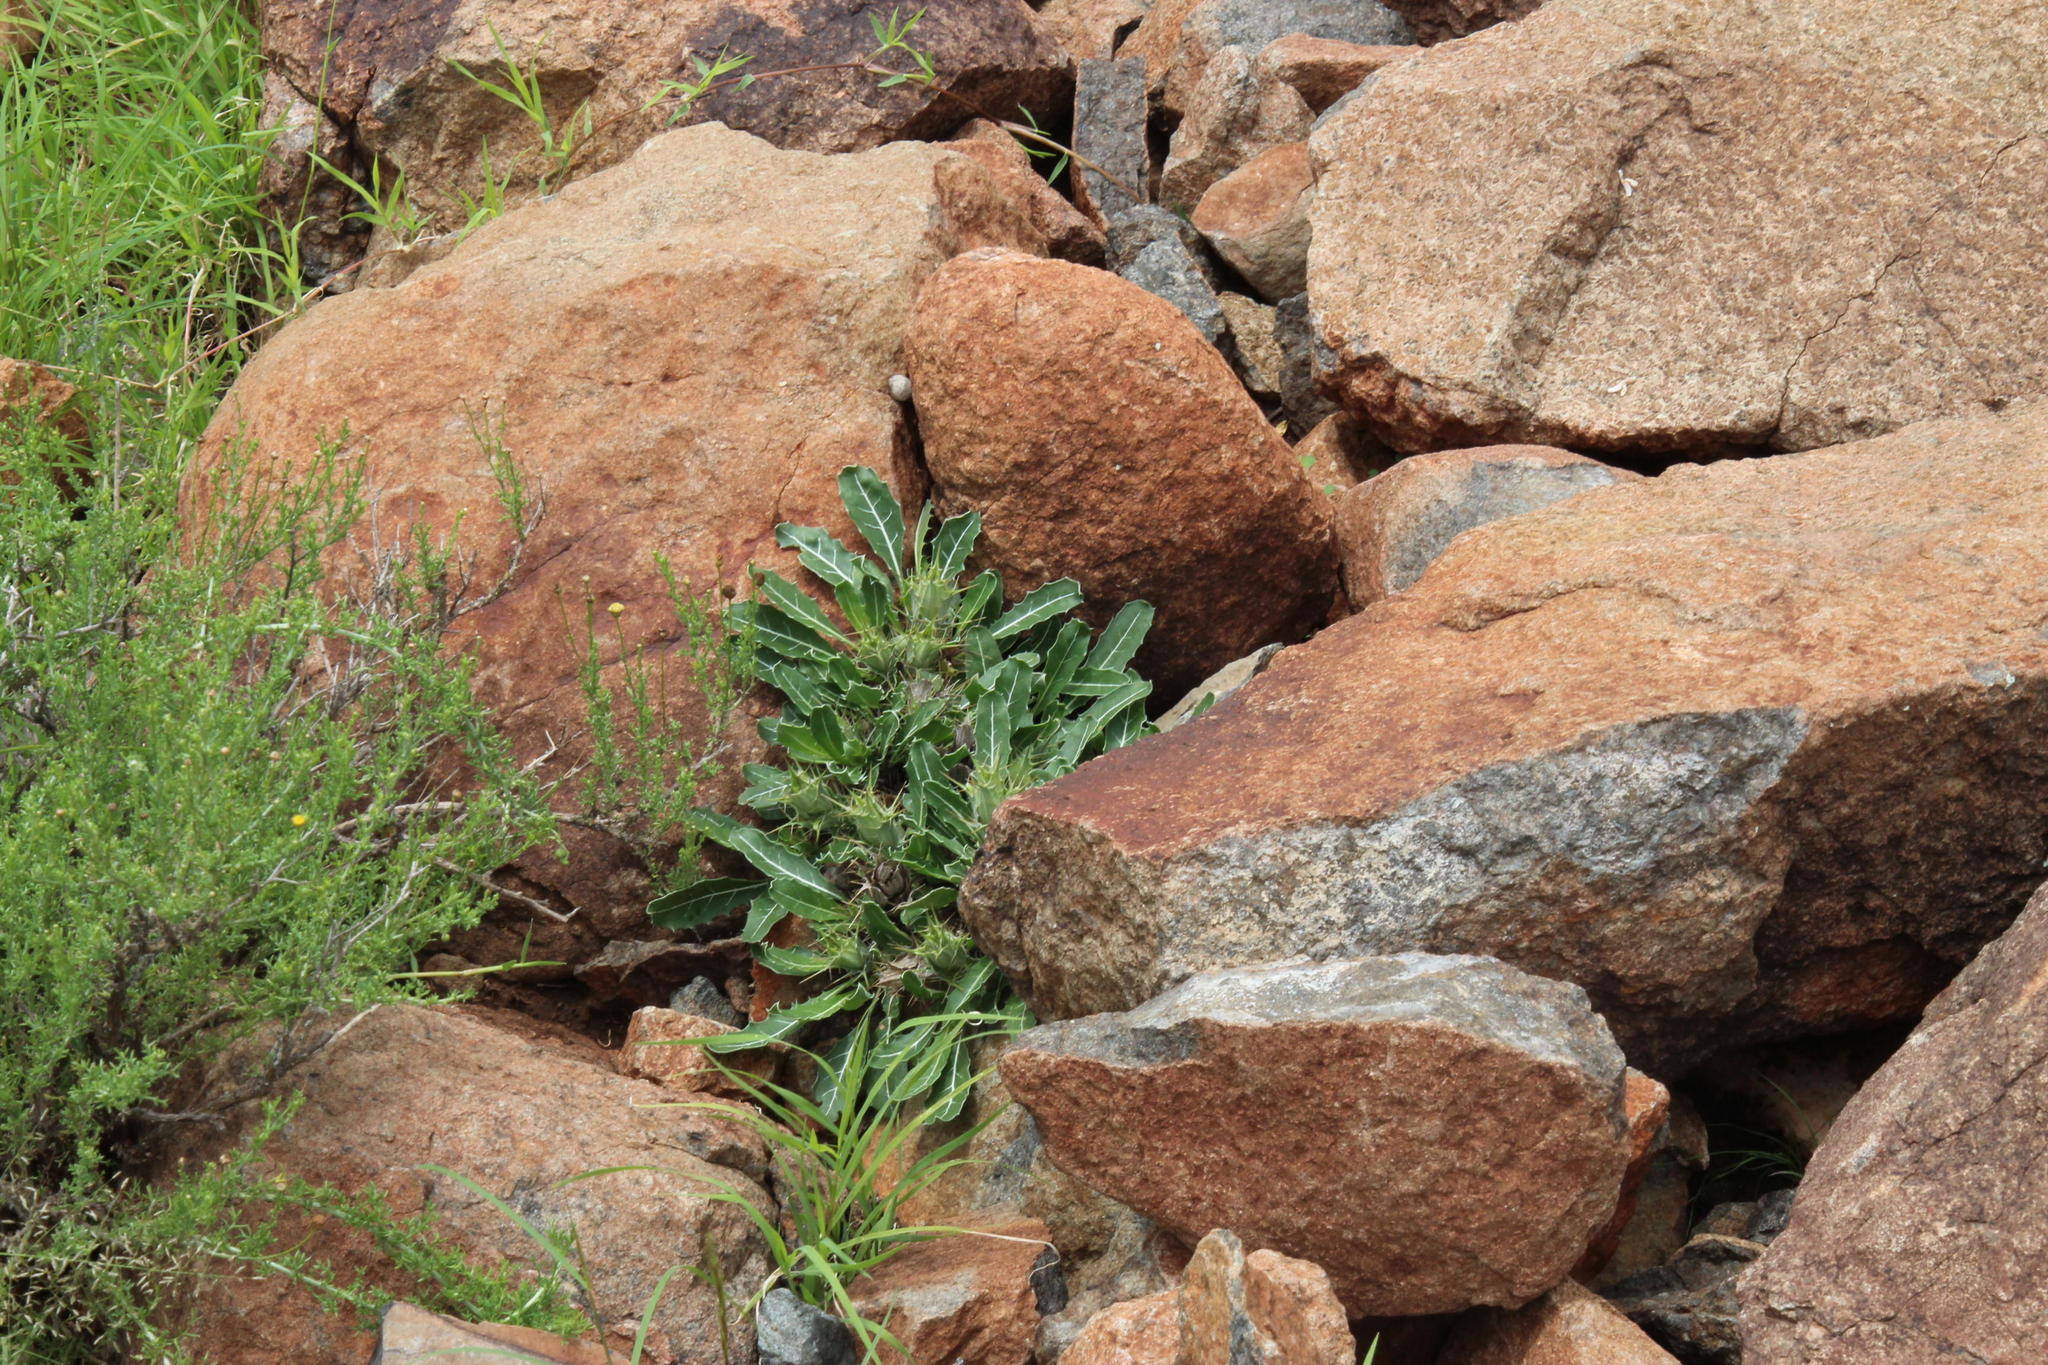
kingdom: Plantae
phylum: Tracheophyta
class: Magnoliopsida
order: Lamiales
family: Acanthaceae
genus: Blepharis
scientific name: Blepharis mitrata
